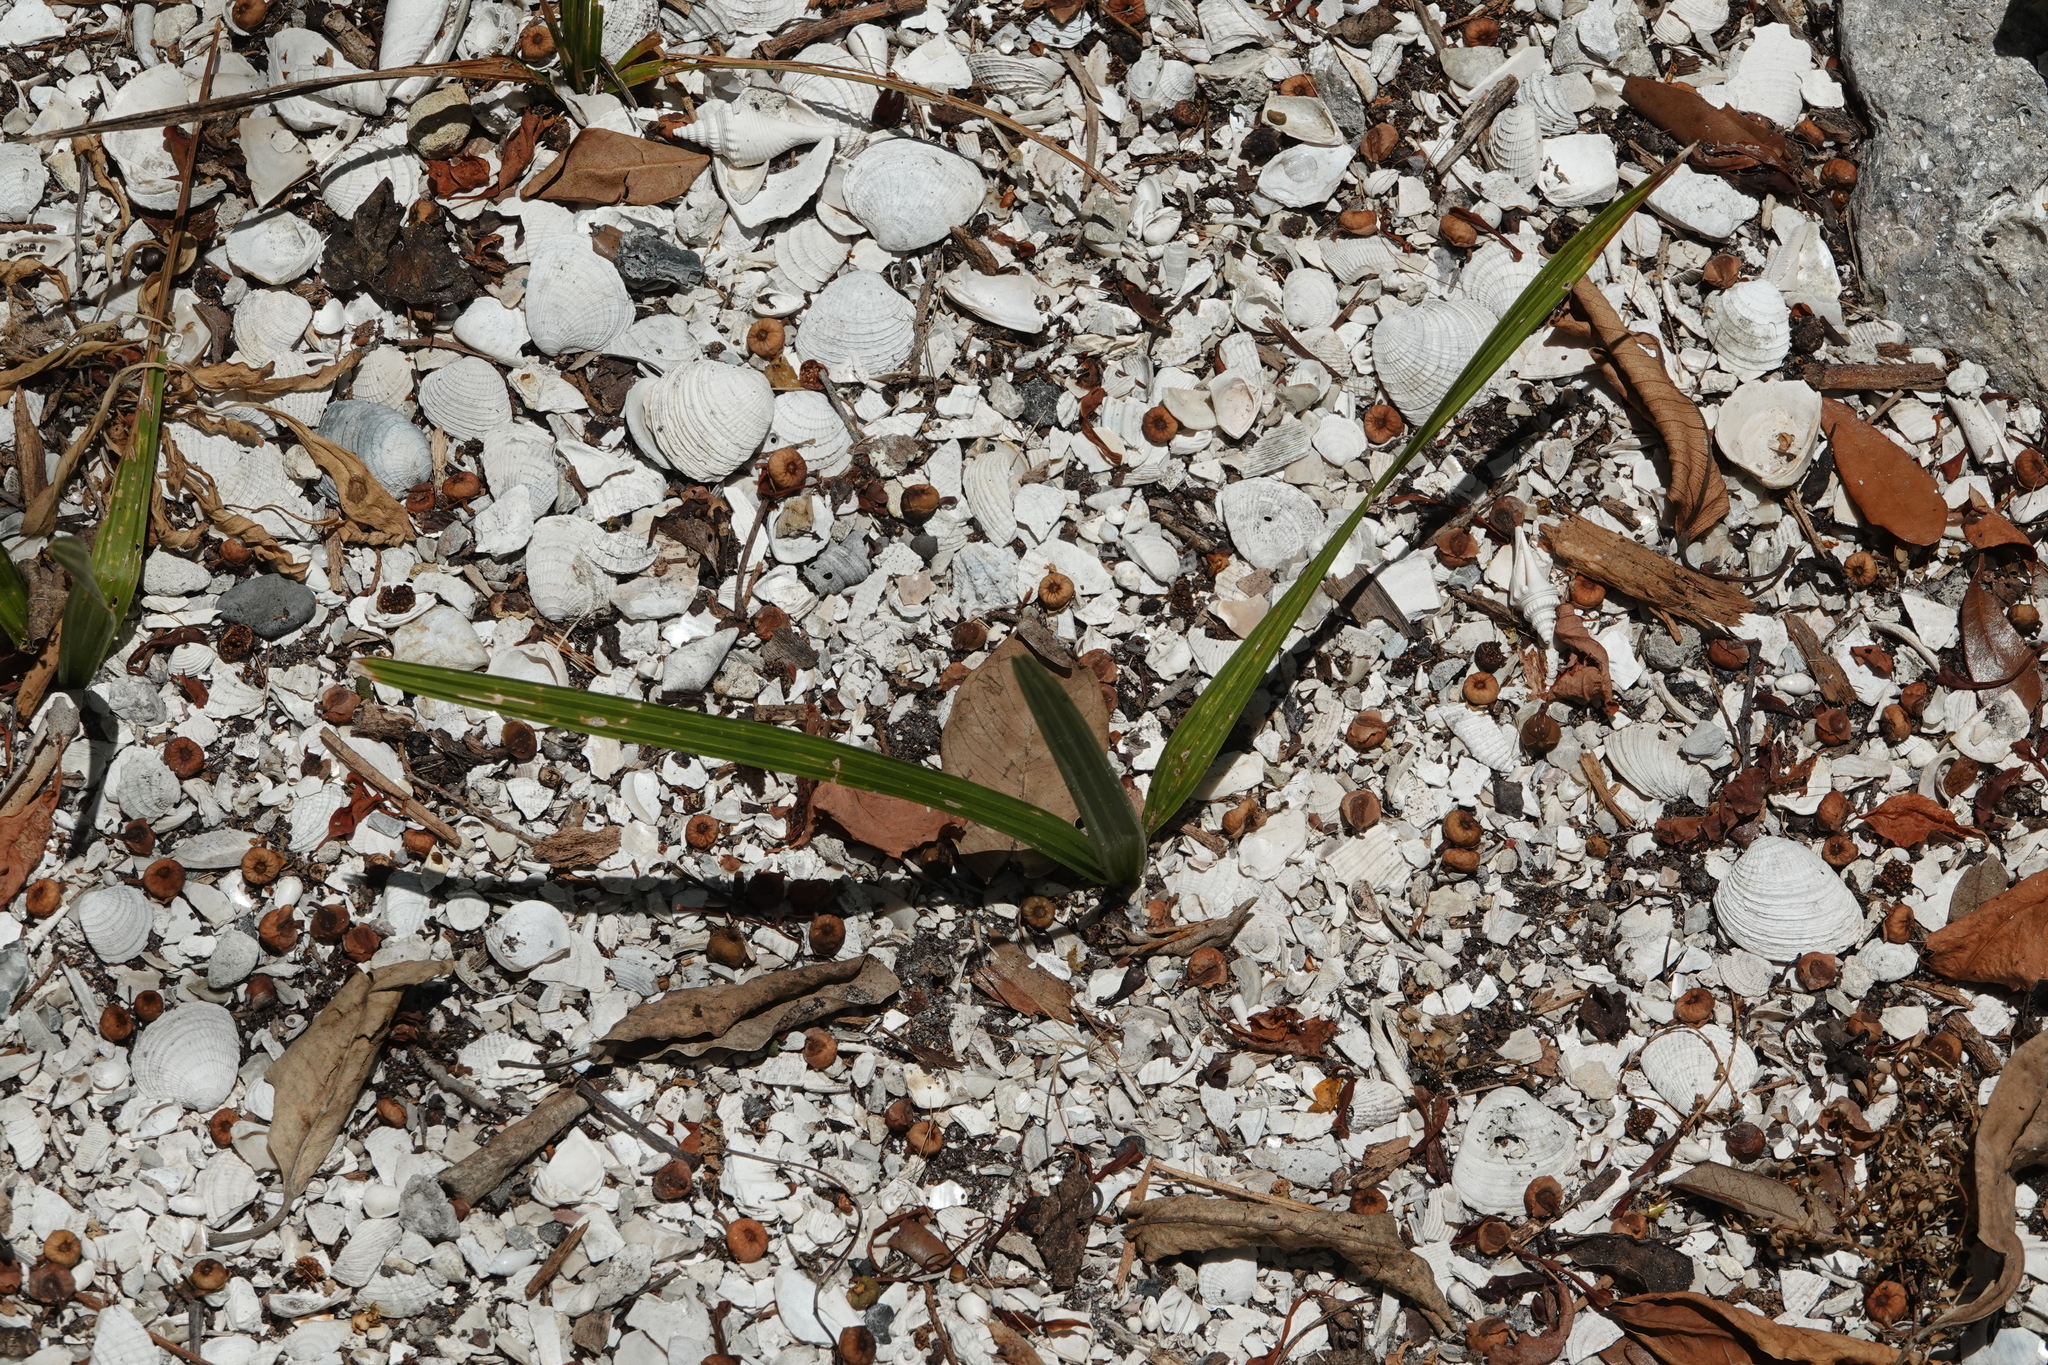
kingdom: Plantae
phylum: Tracheophyta
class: Liliopsida
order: Arecales
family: Arecaceae
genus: Sabal
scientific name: Sabal palmetto
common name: Blue palmetto
